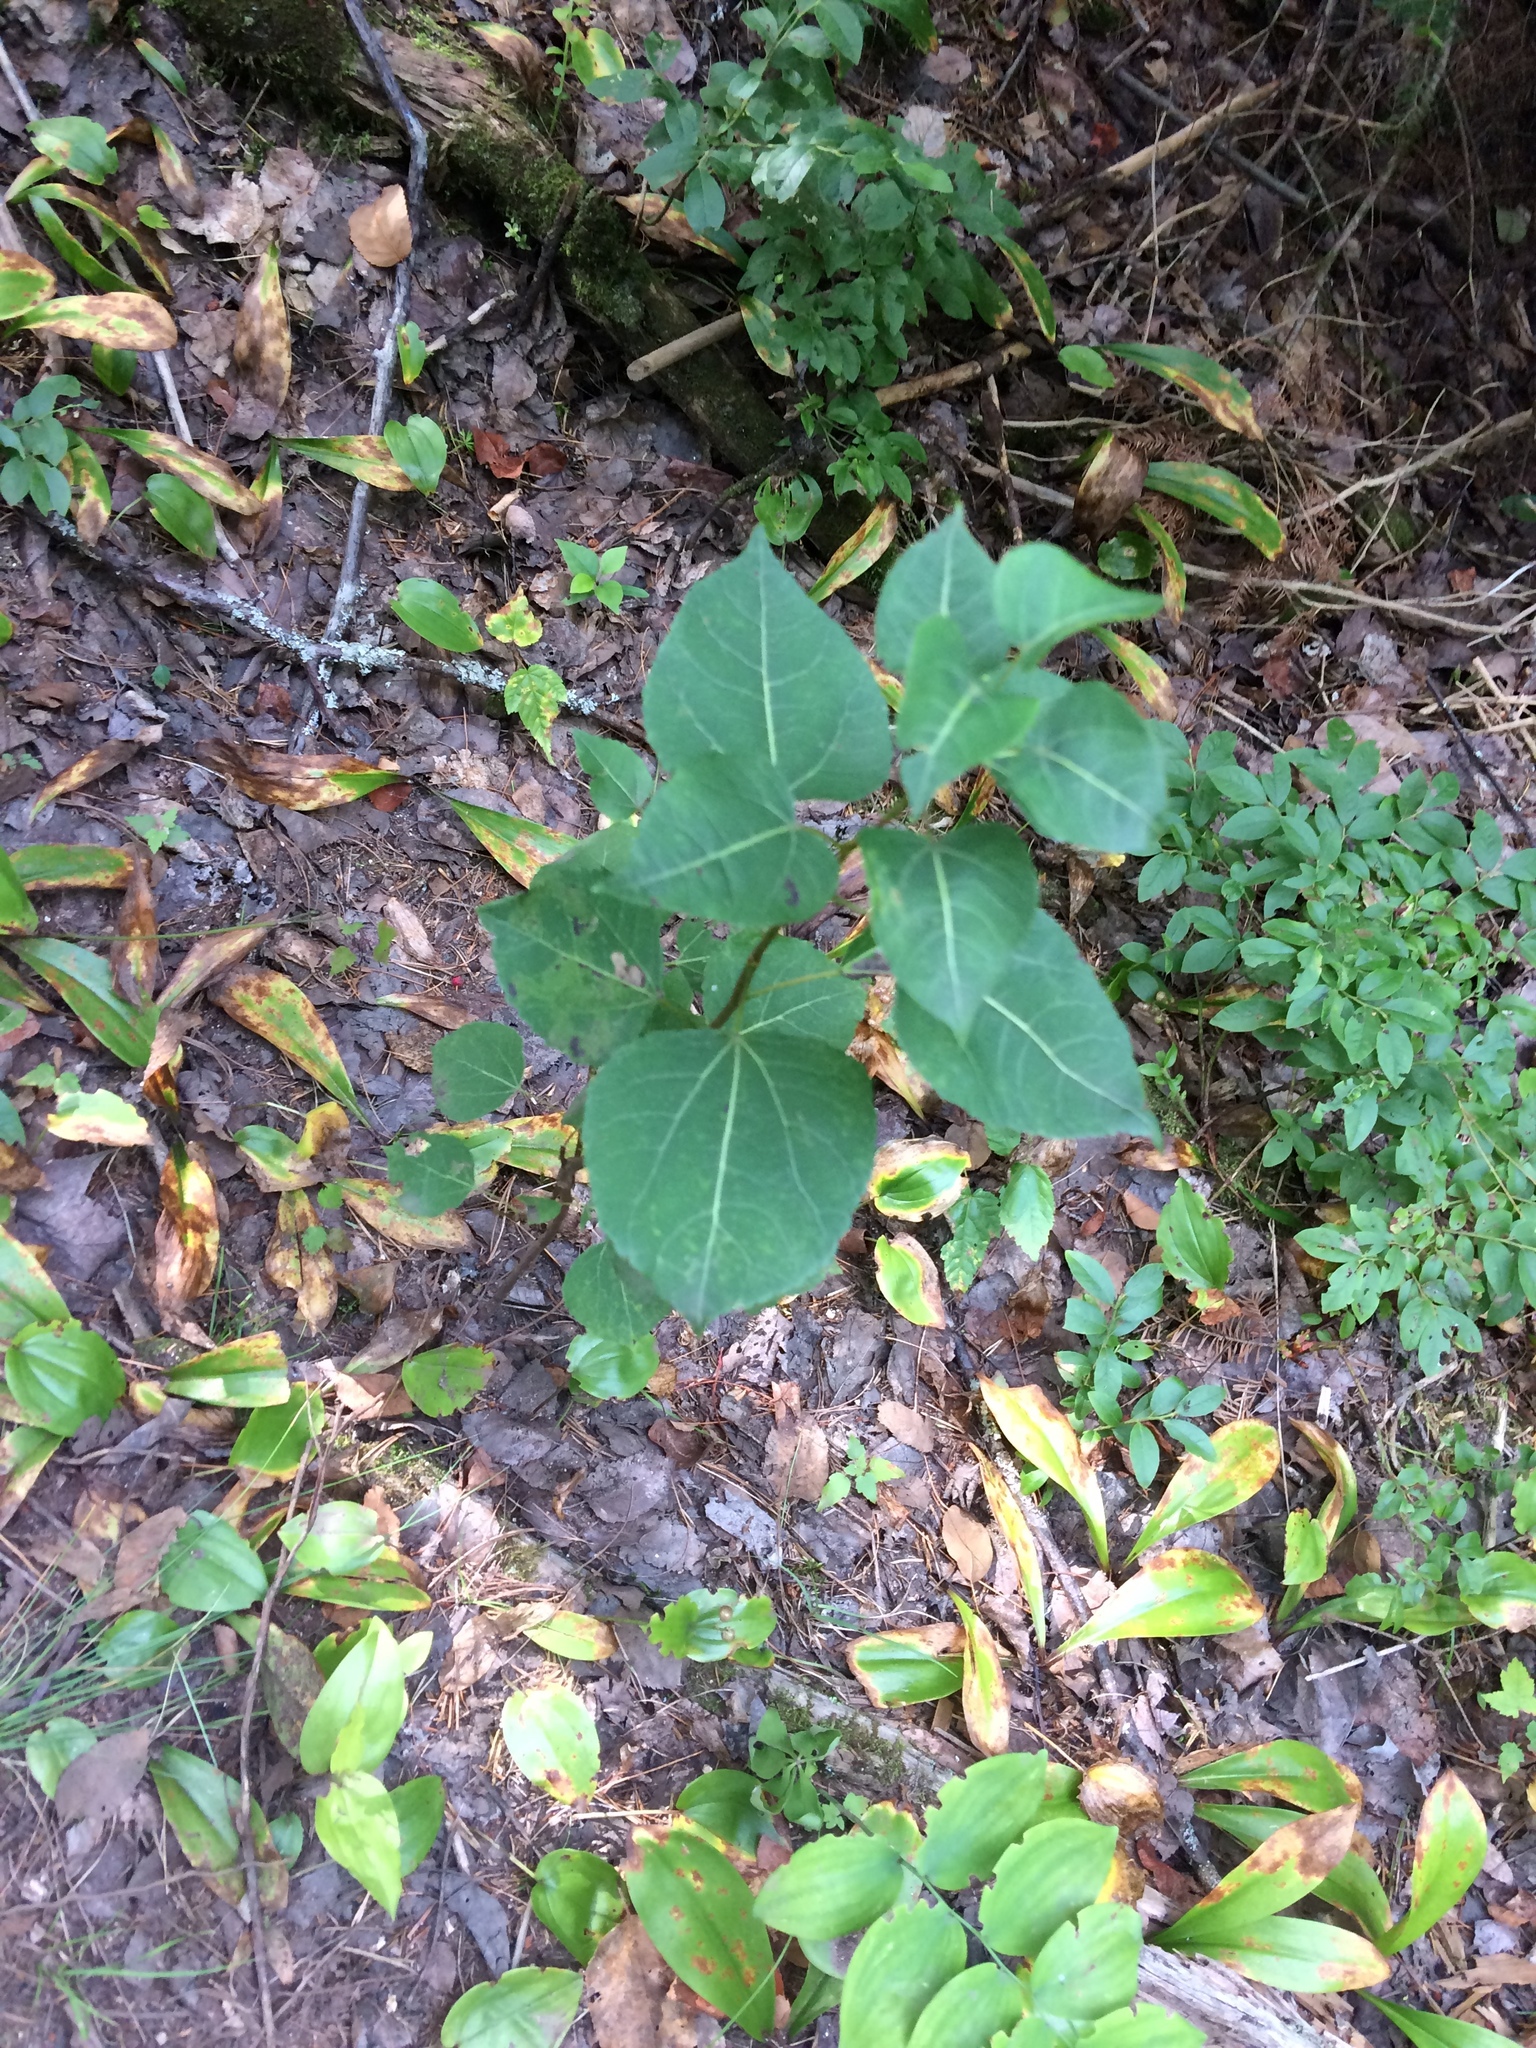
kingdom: Plantae
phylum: Tracheophyta
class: Magnoliopsida
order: Malpighiales
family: Salicaceae
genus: Populus
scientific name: Populus tremuloides
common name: Quaking aspen
